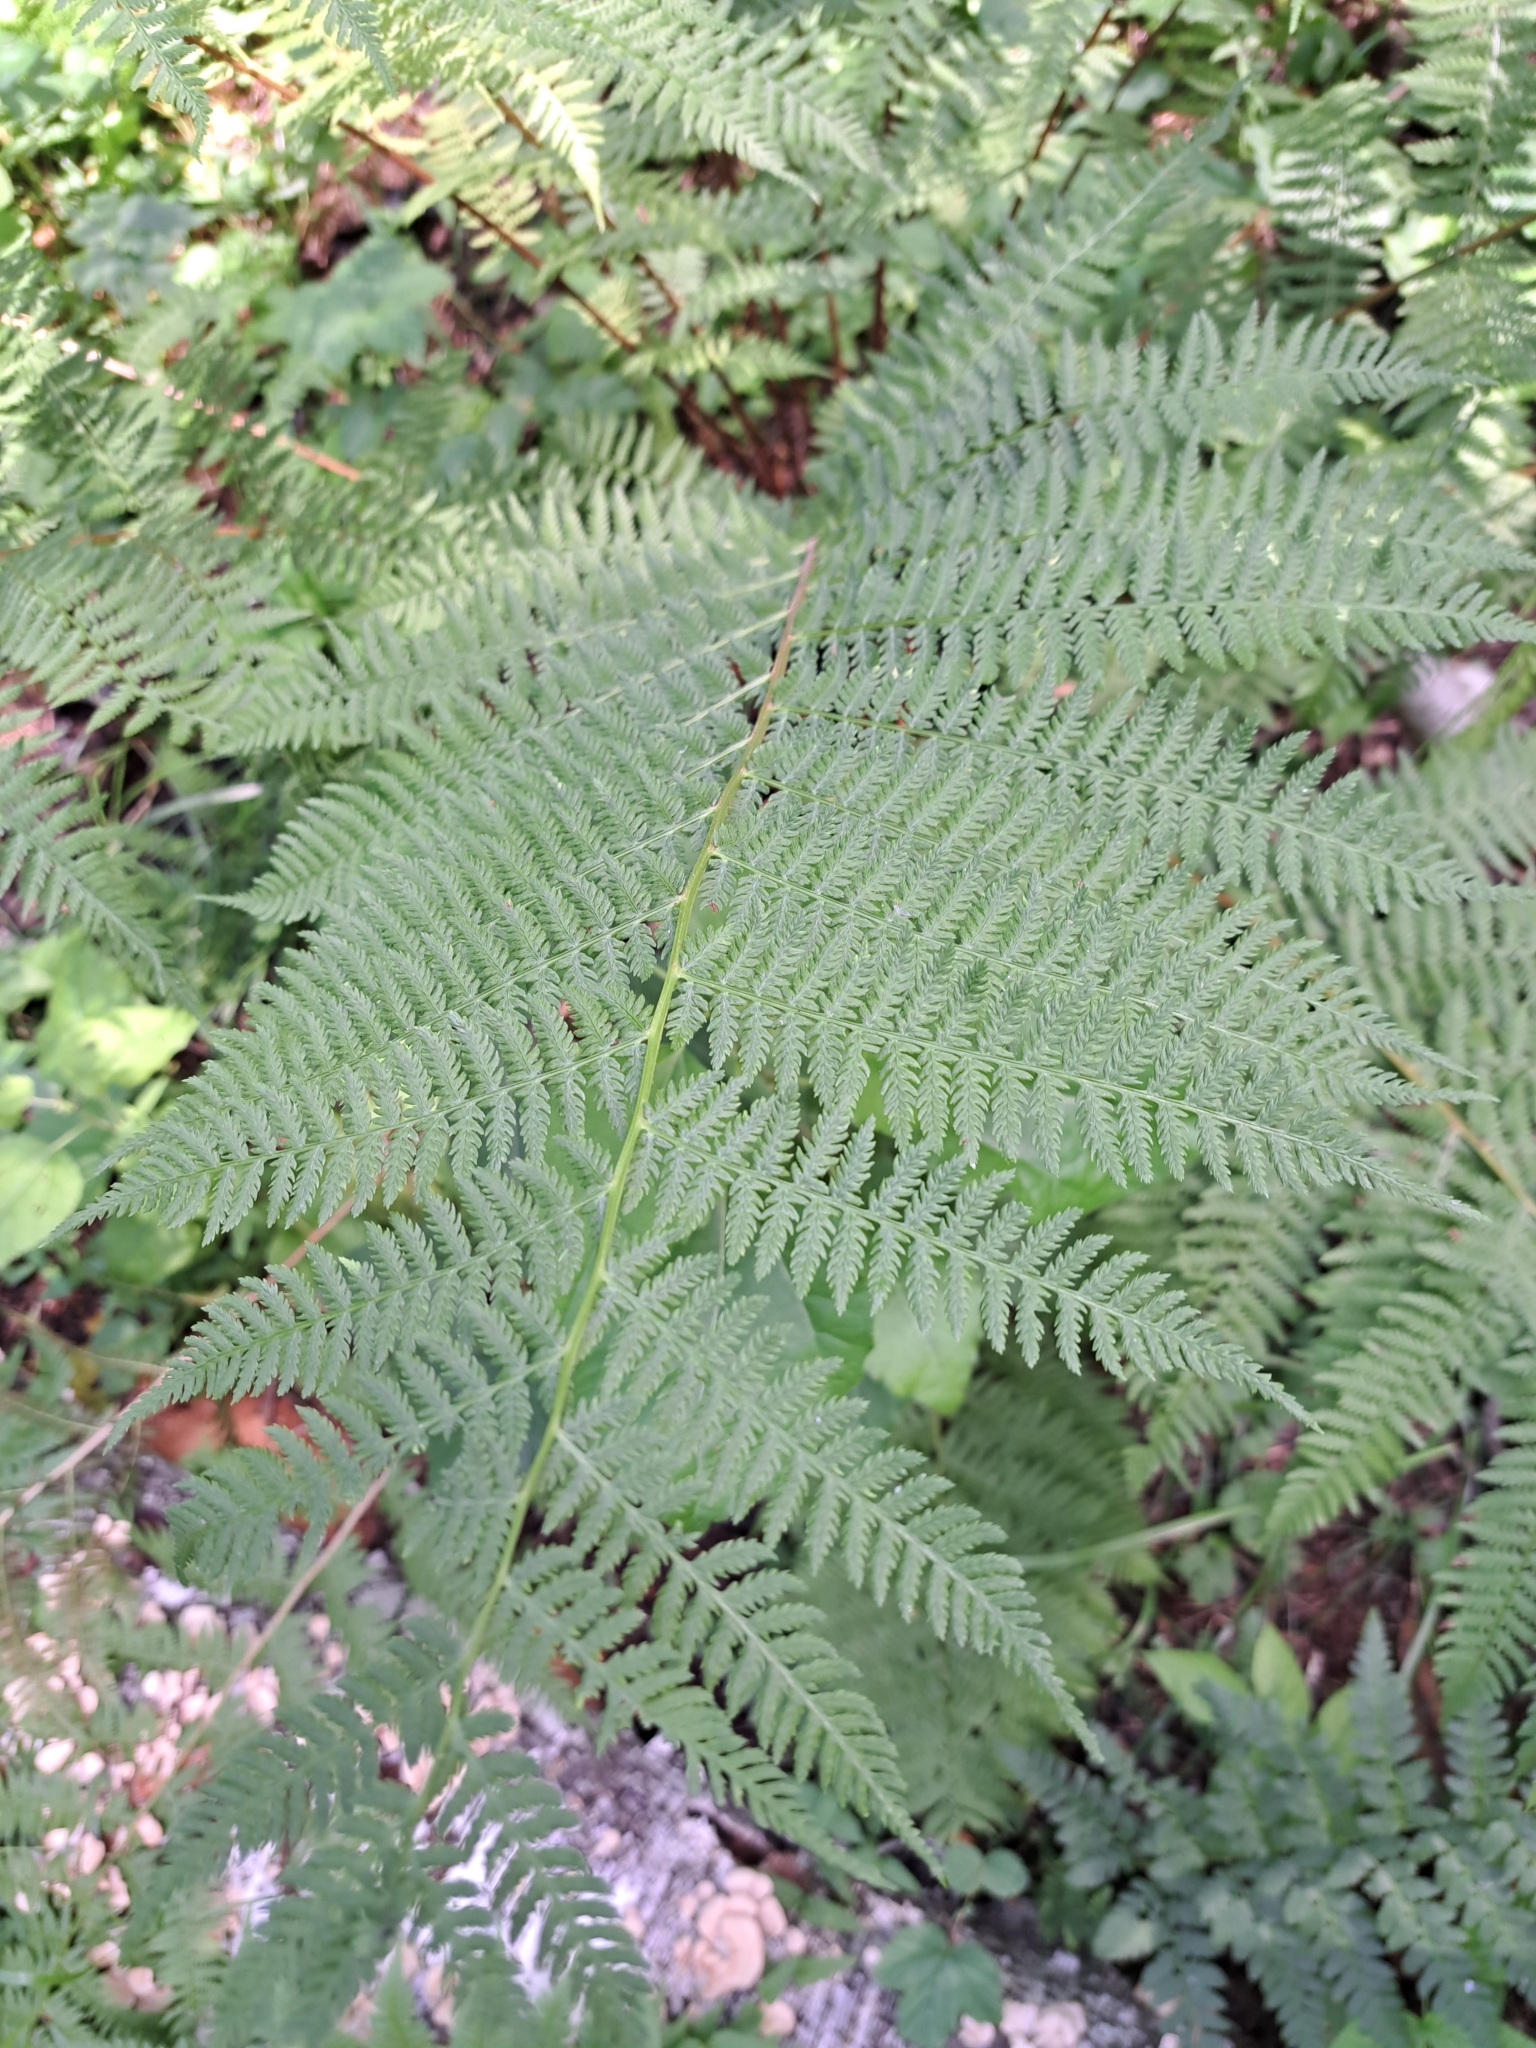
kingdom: Plantae
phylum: Tracheophyta
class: Polypodiopsida
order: Polypodiales
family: Athyriaceae
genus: Athyrium
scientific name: Athyrium filix-femina
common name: Lady fern
